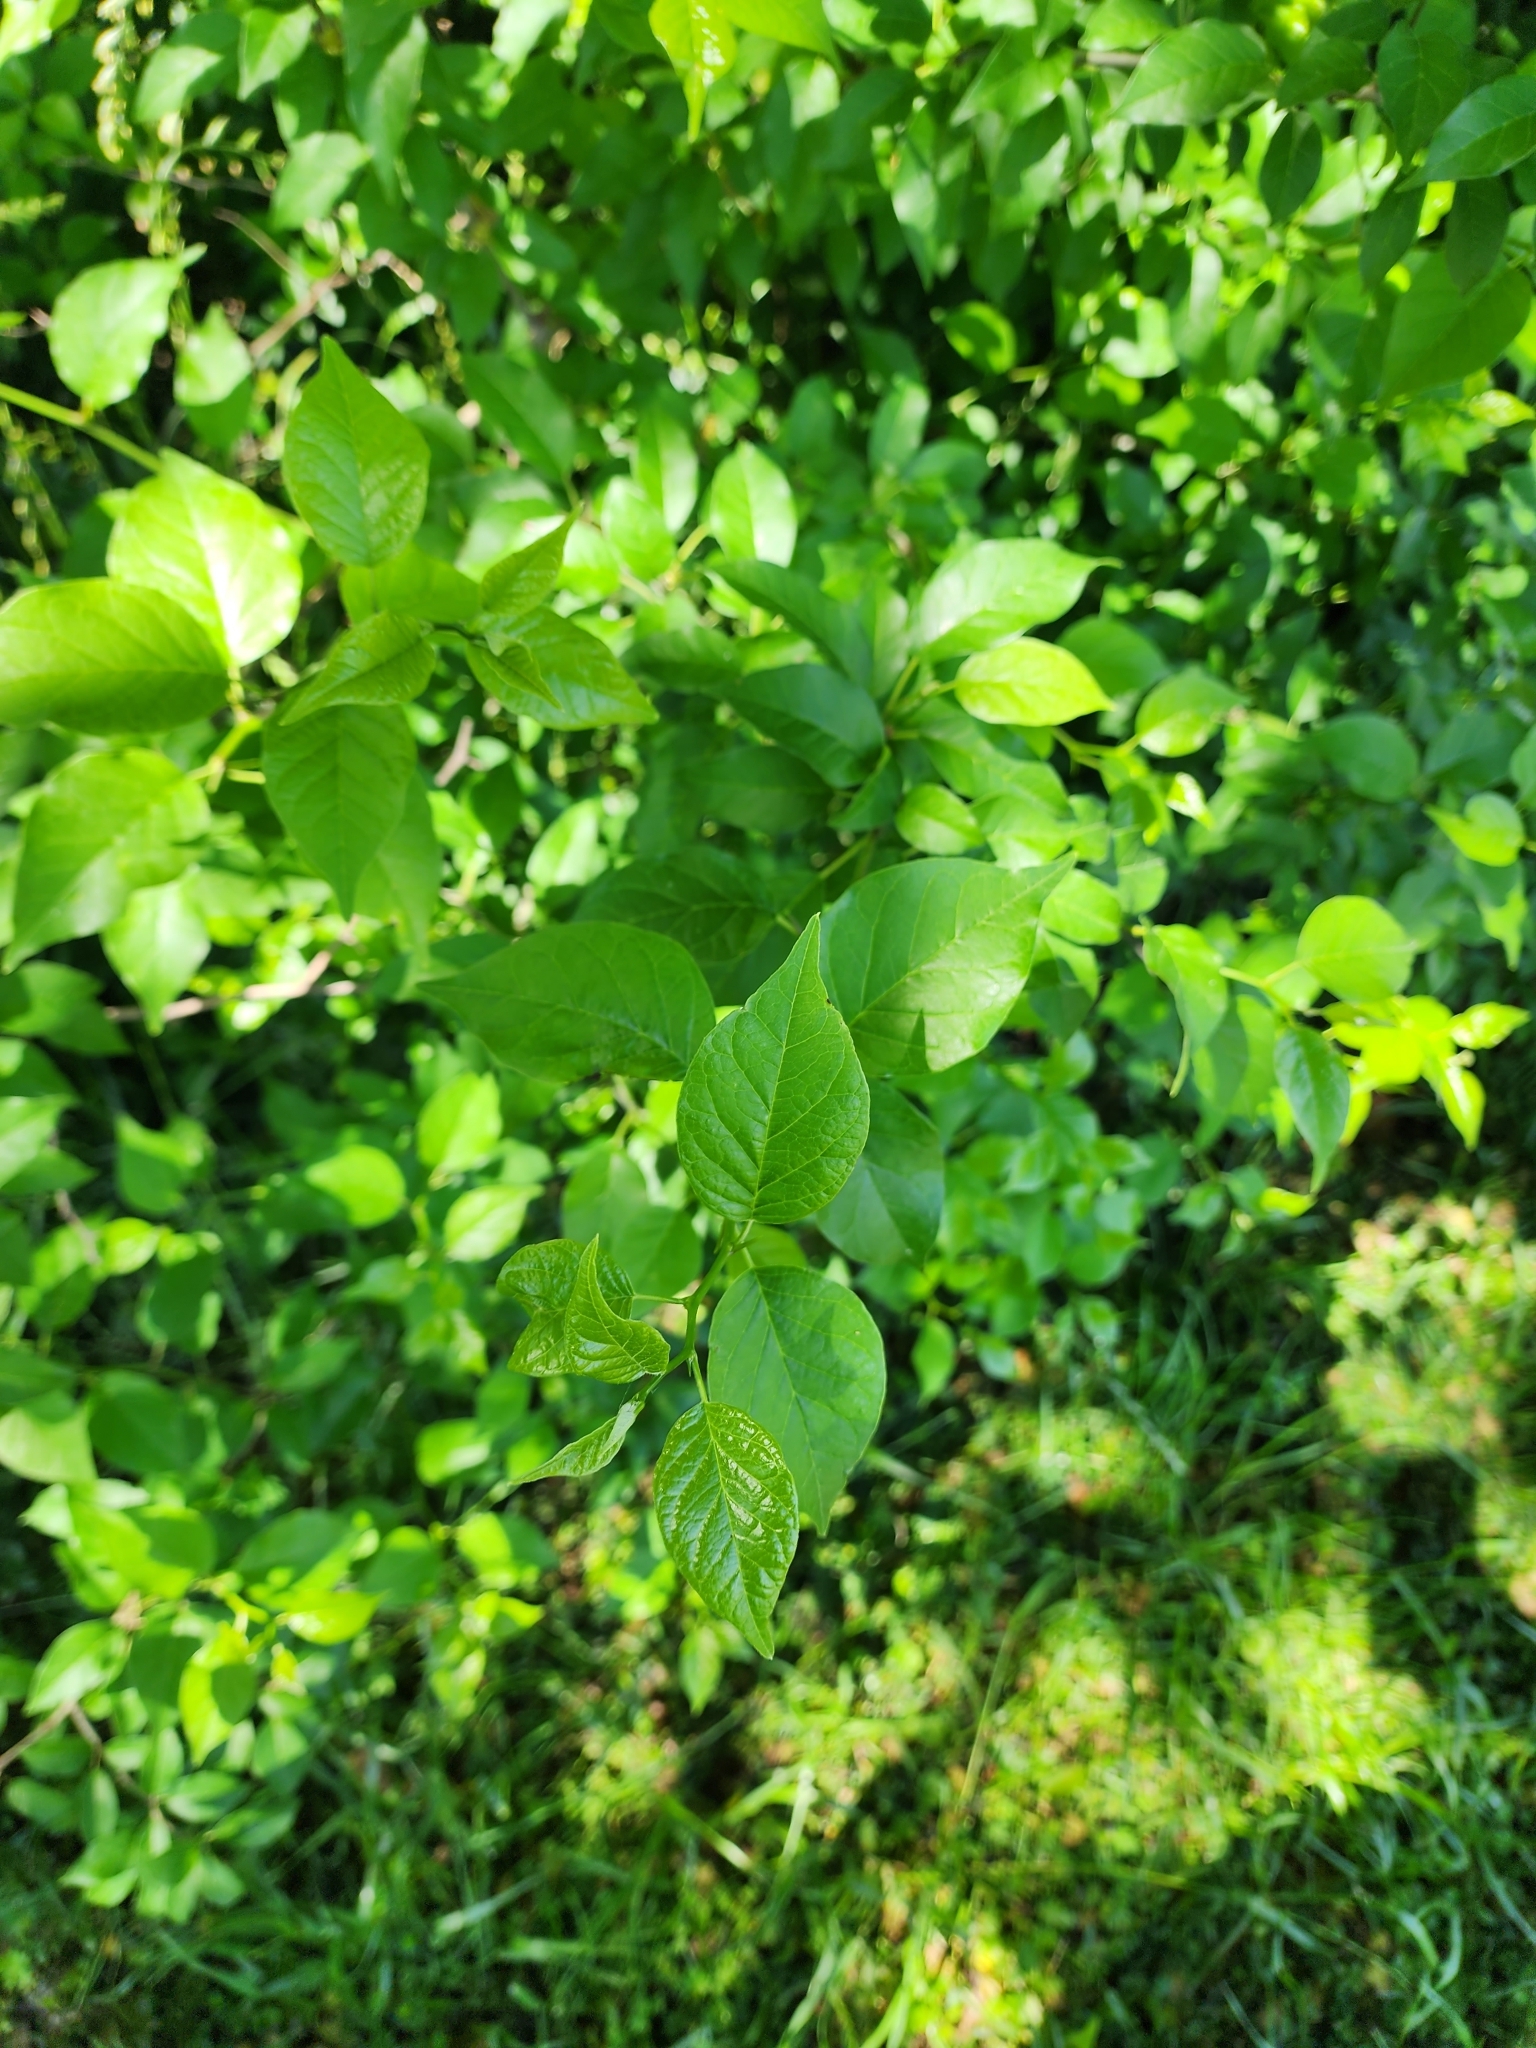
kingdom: Plantae
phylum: Tracheophyta
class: Magnoliopsida
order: Rosales
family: Moraceae
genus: Maclura
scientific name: Maclura pomifera
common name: Osage-orange
